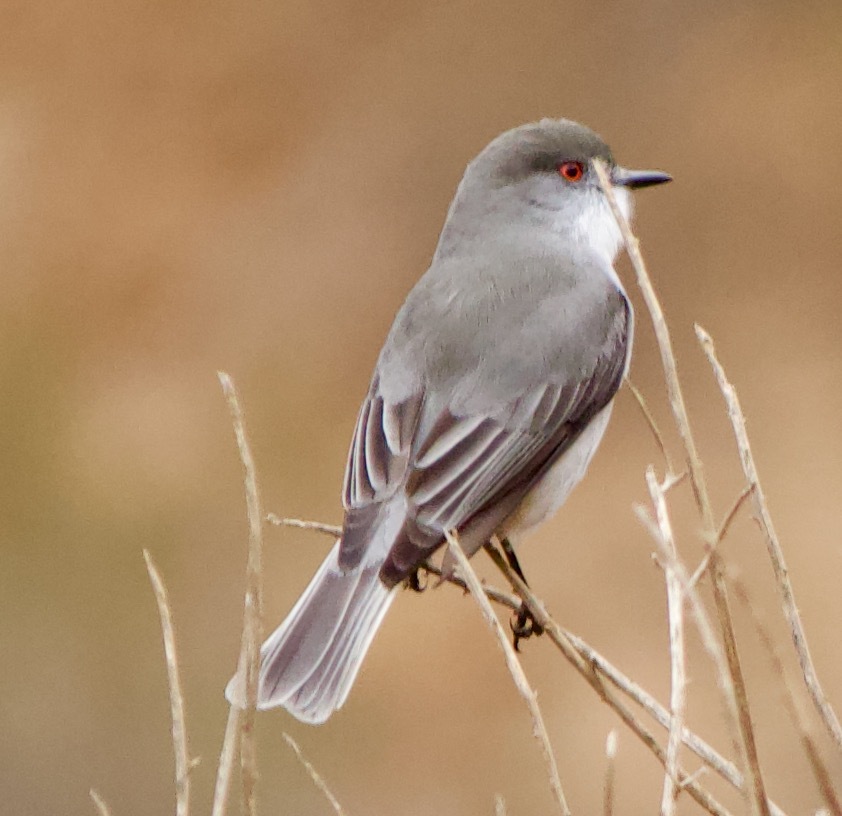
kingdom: Animalia
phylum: Chordata
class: Aves
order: Passeriformes
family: Tyrannidae
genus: Xolmis
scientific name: Xolmis pyrope
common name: Fire-eyed diucon
